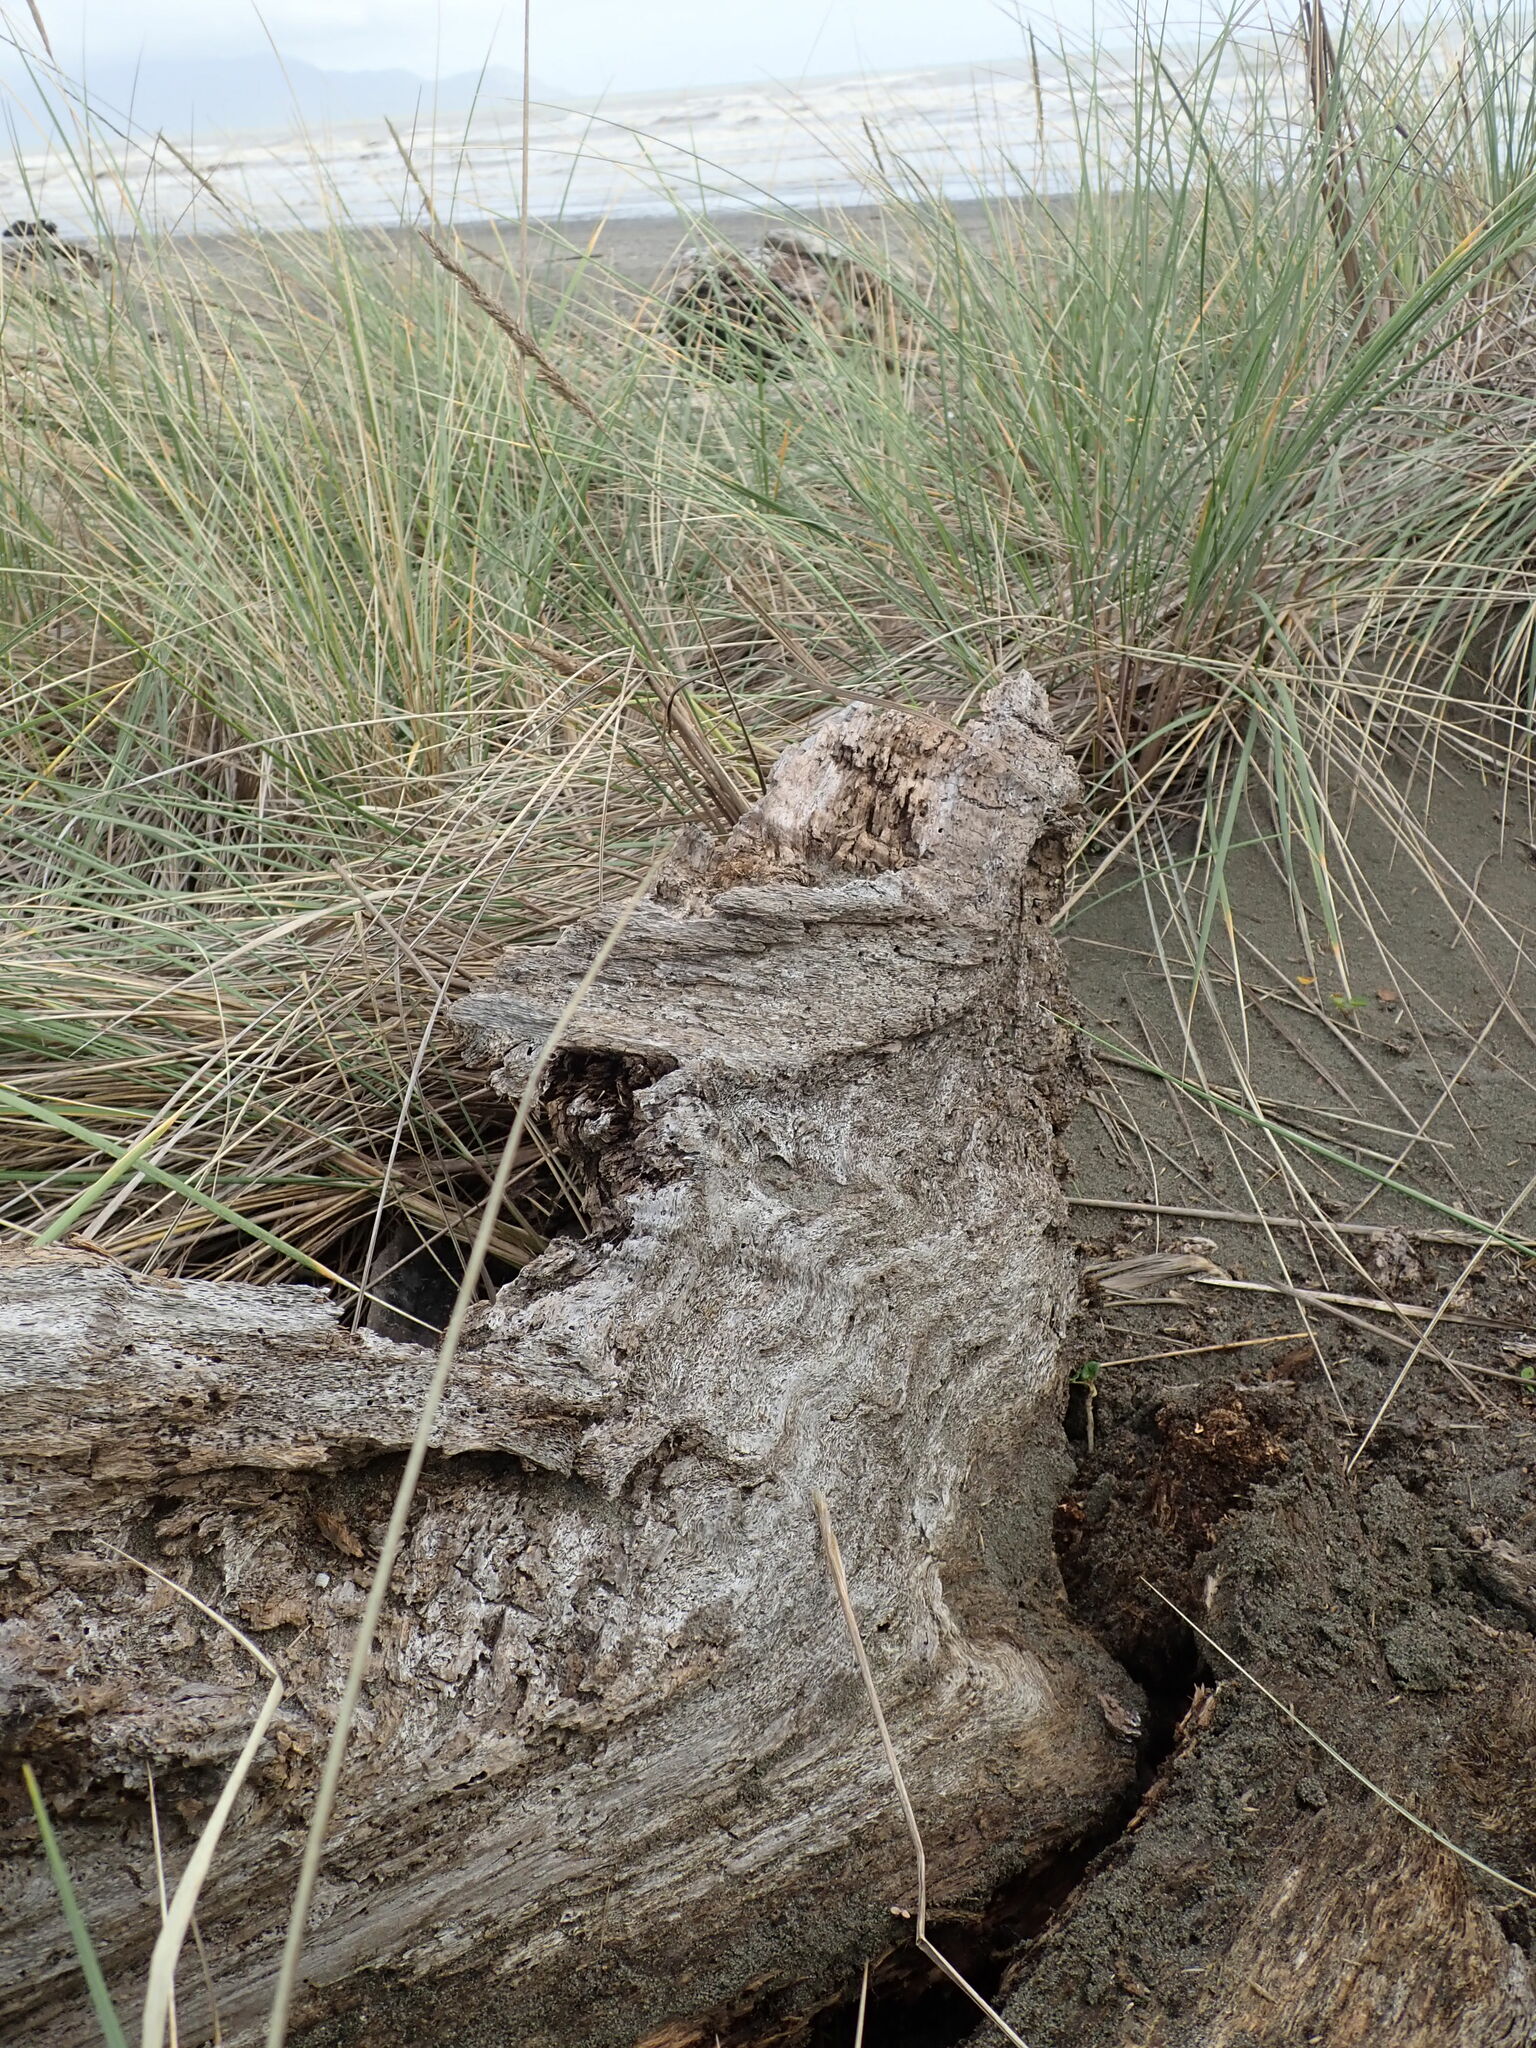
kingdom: Animalia
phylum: Mollusca
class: Gastropoda
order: Stylommatophora
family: Limacidae
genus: Limax
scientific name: Limax maximus
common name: Great grey slug
